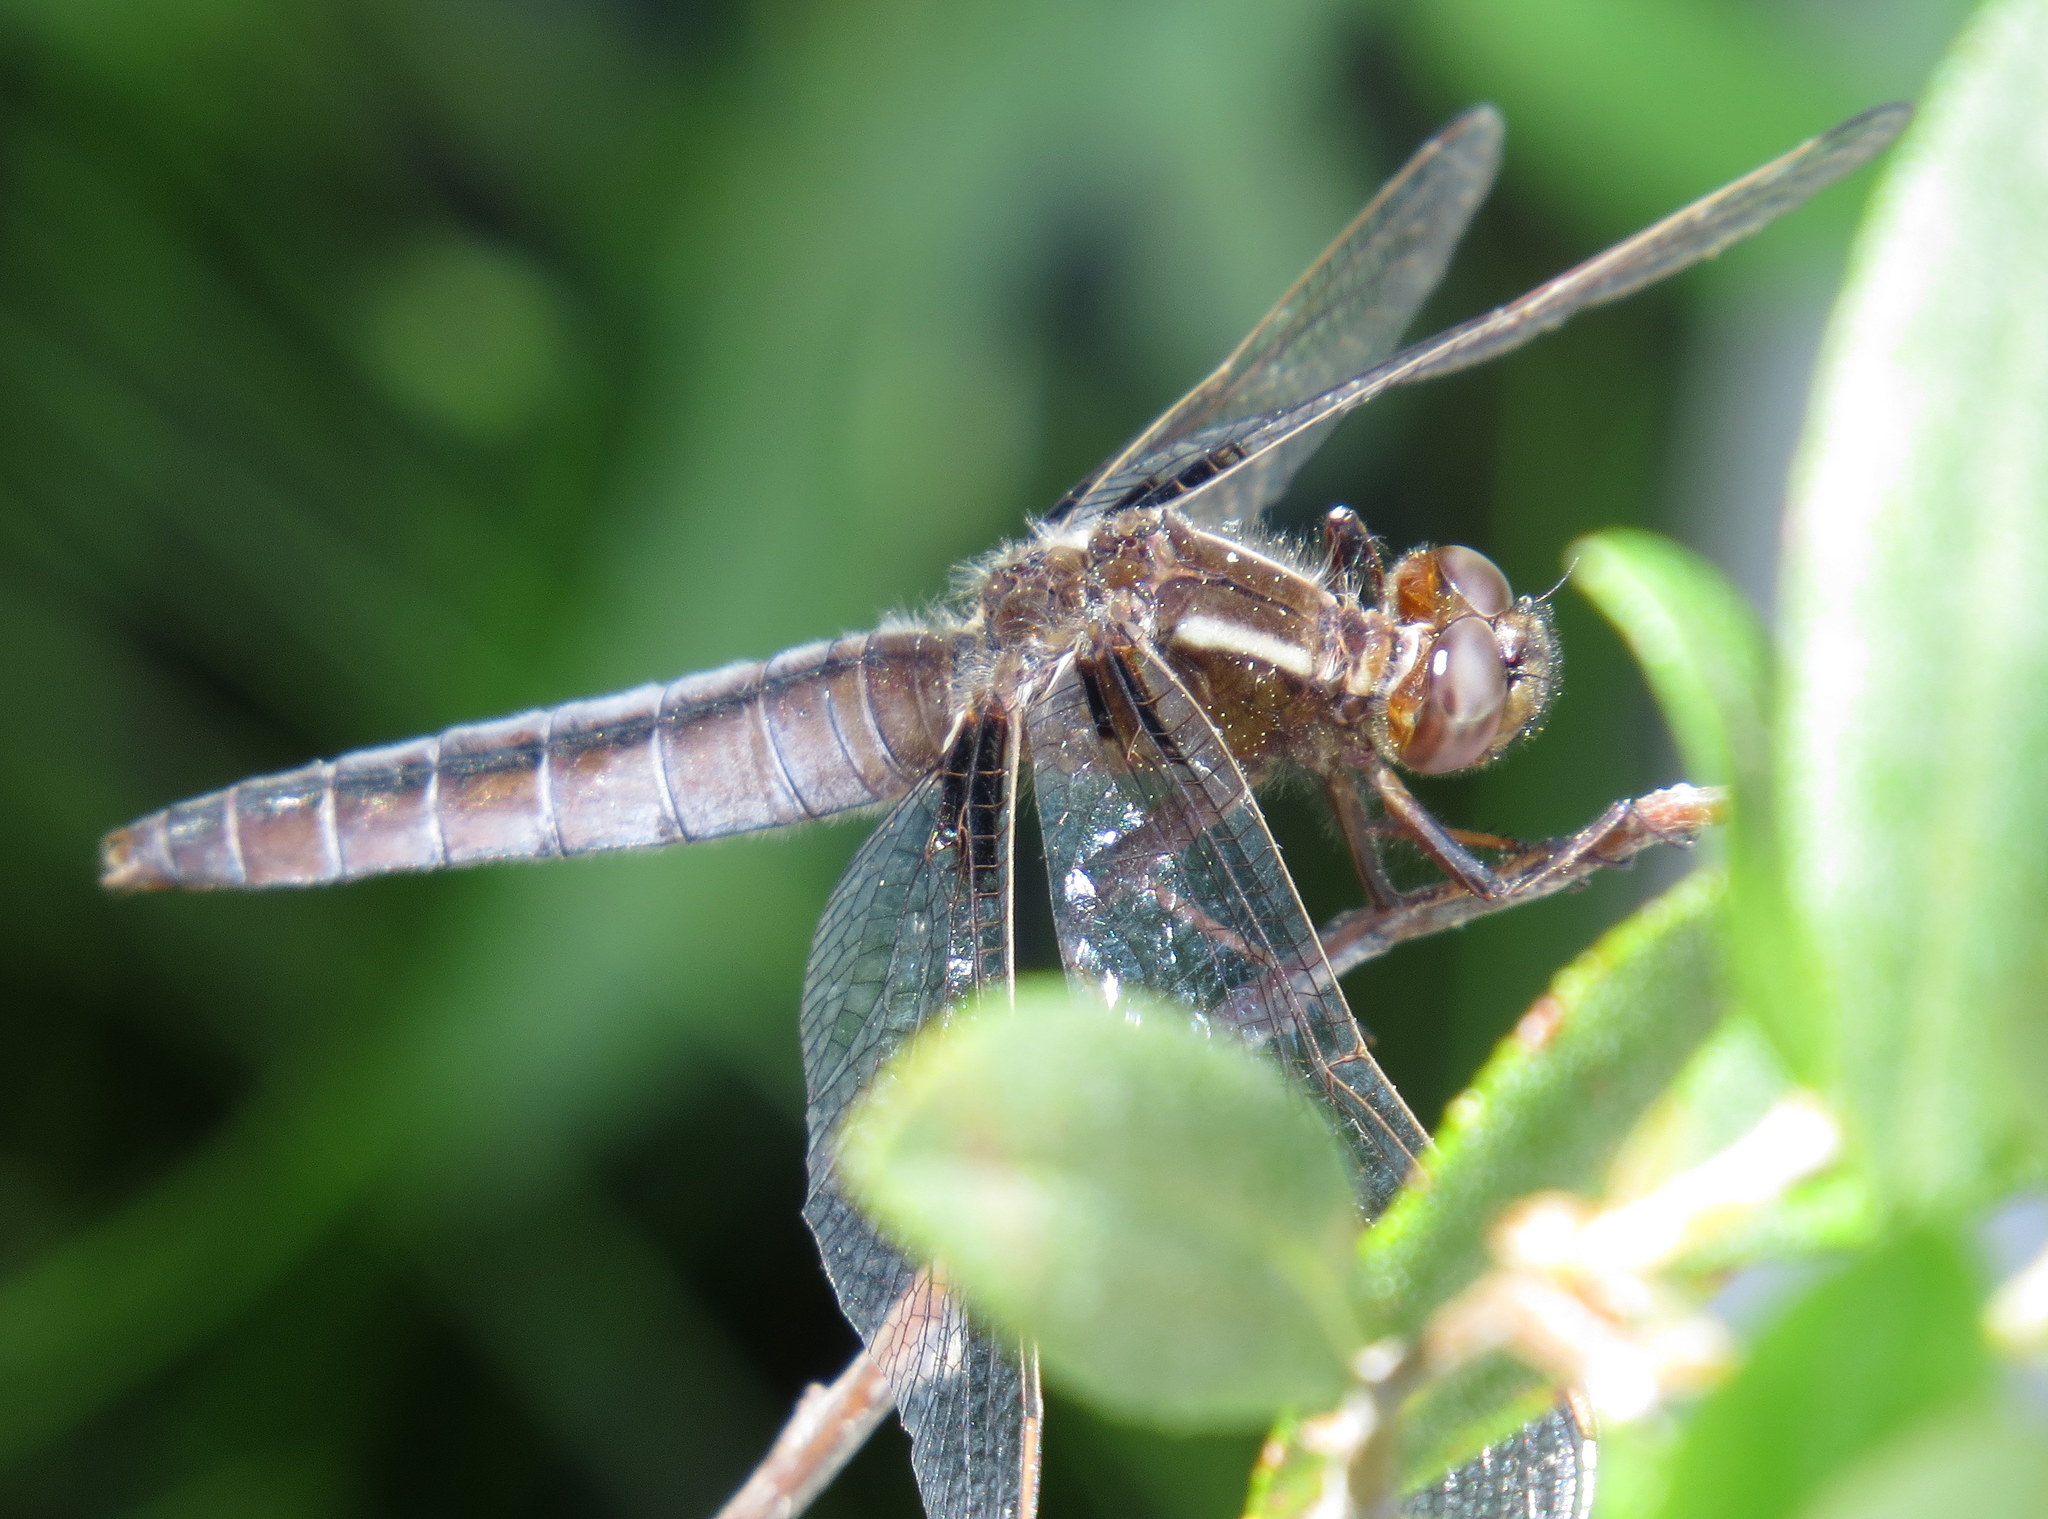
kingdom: Animalia
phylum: Arthropoda
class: Insecta
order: Odonata
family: Libellulidae
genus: Ladona
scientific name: Ladona exusta
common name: Libellule embrasée
